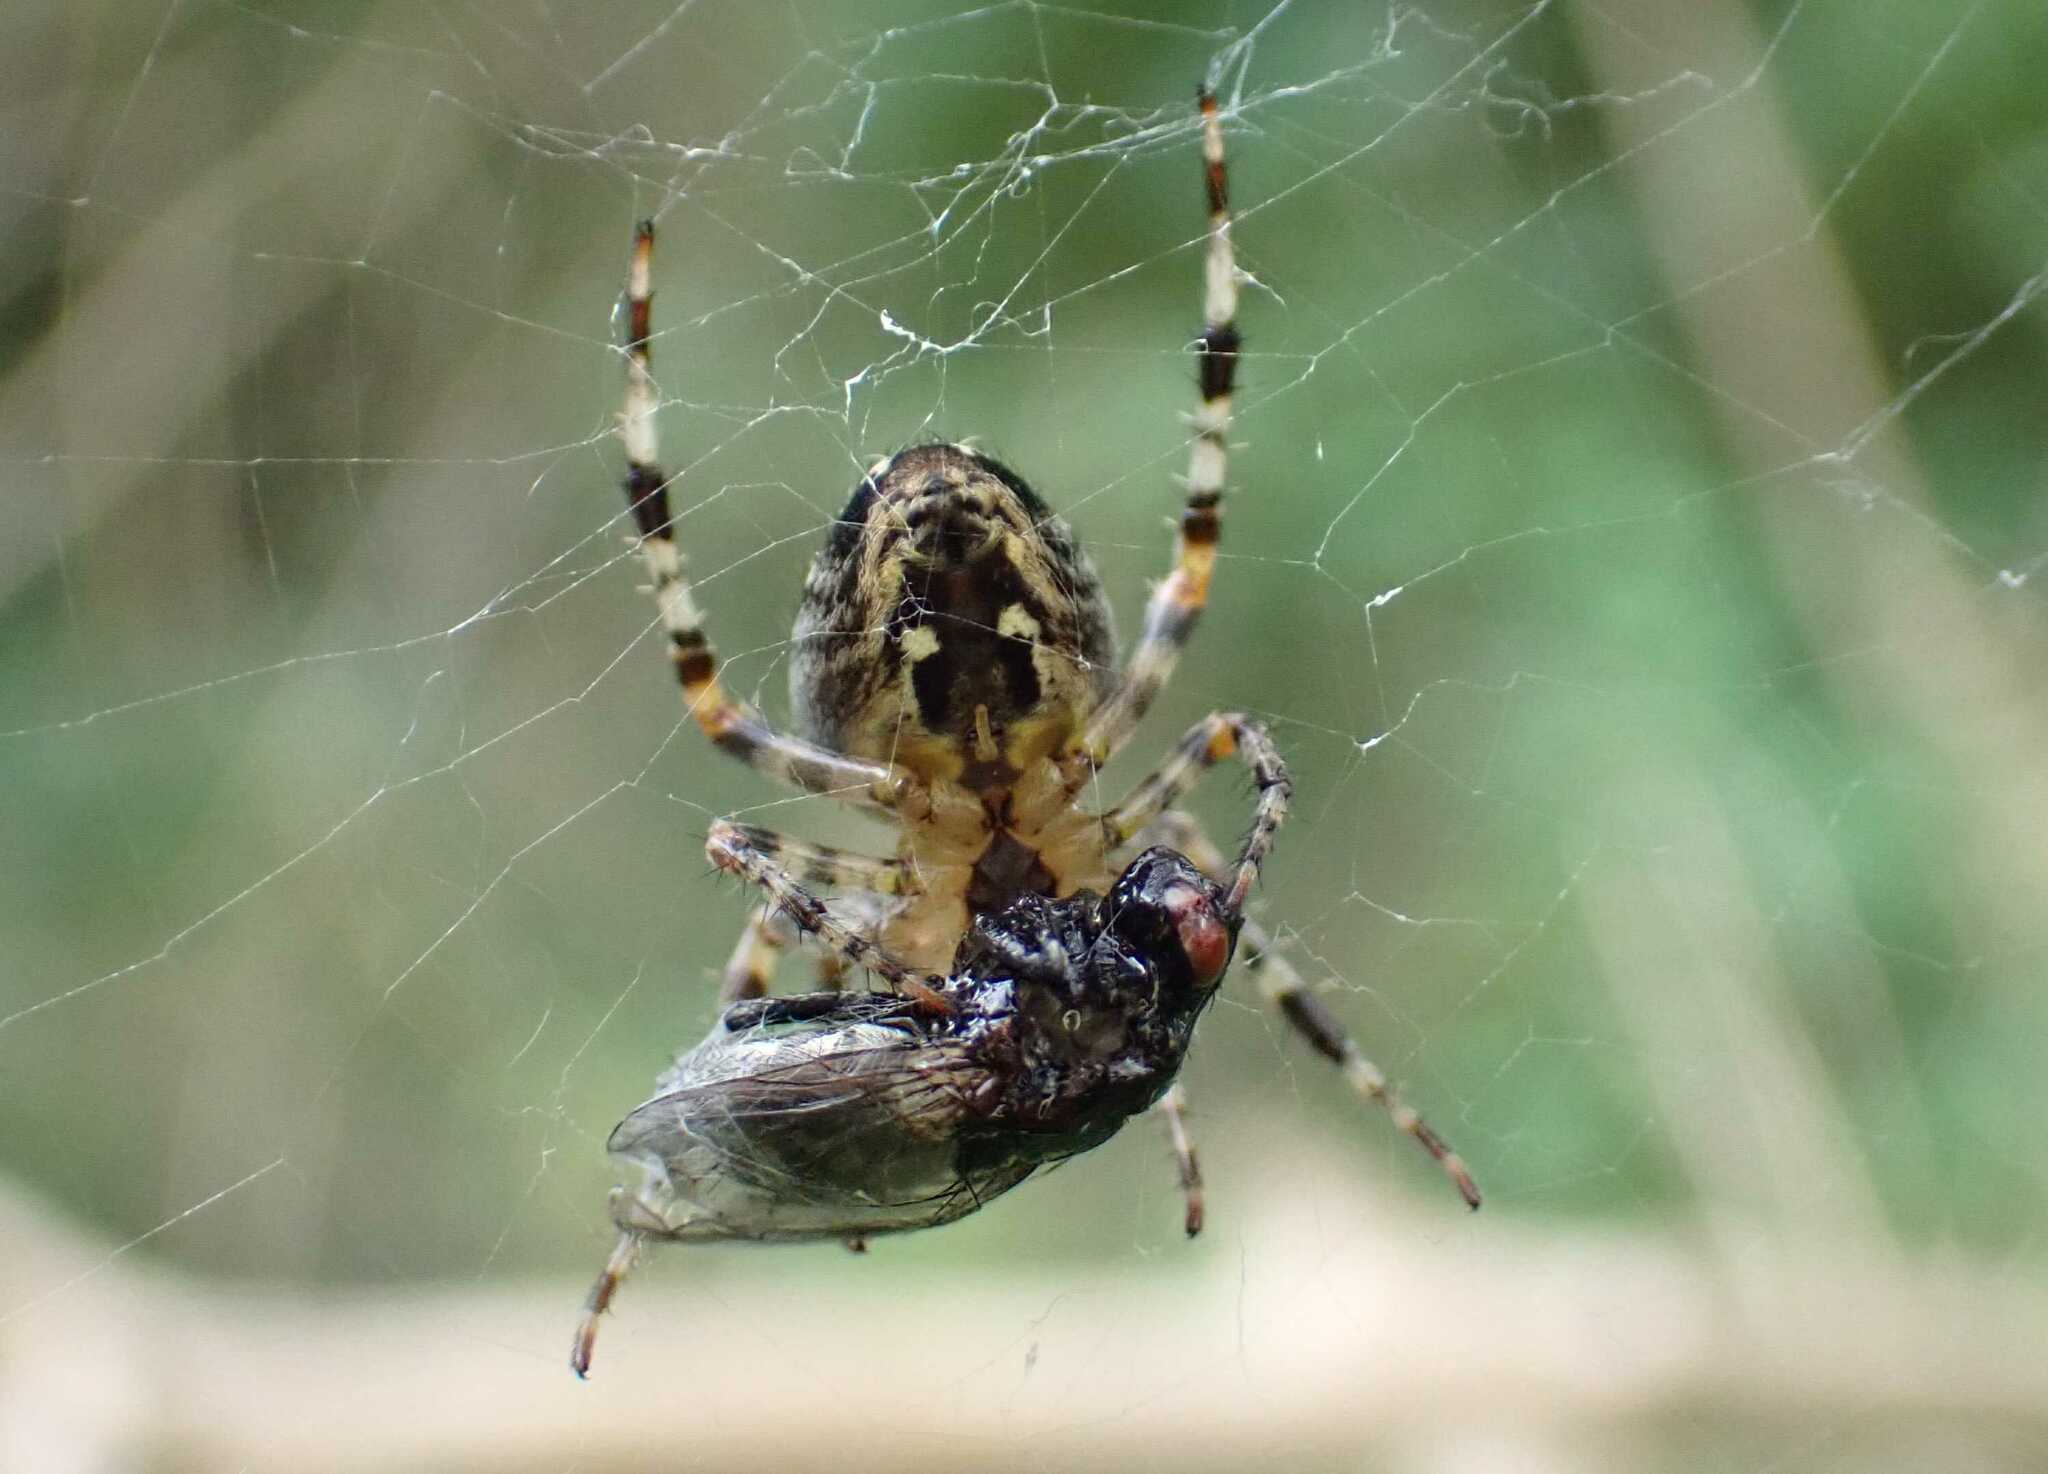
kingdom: Animalia
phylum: Arthropoda
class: Arachnida
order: Araneae
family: Araneidae
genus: Araneus
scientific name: Araneus diadematus
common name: Cross orbweaver
